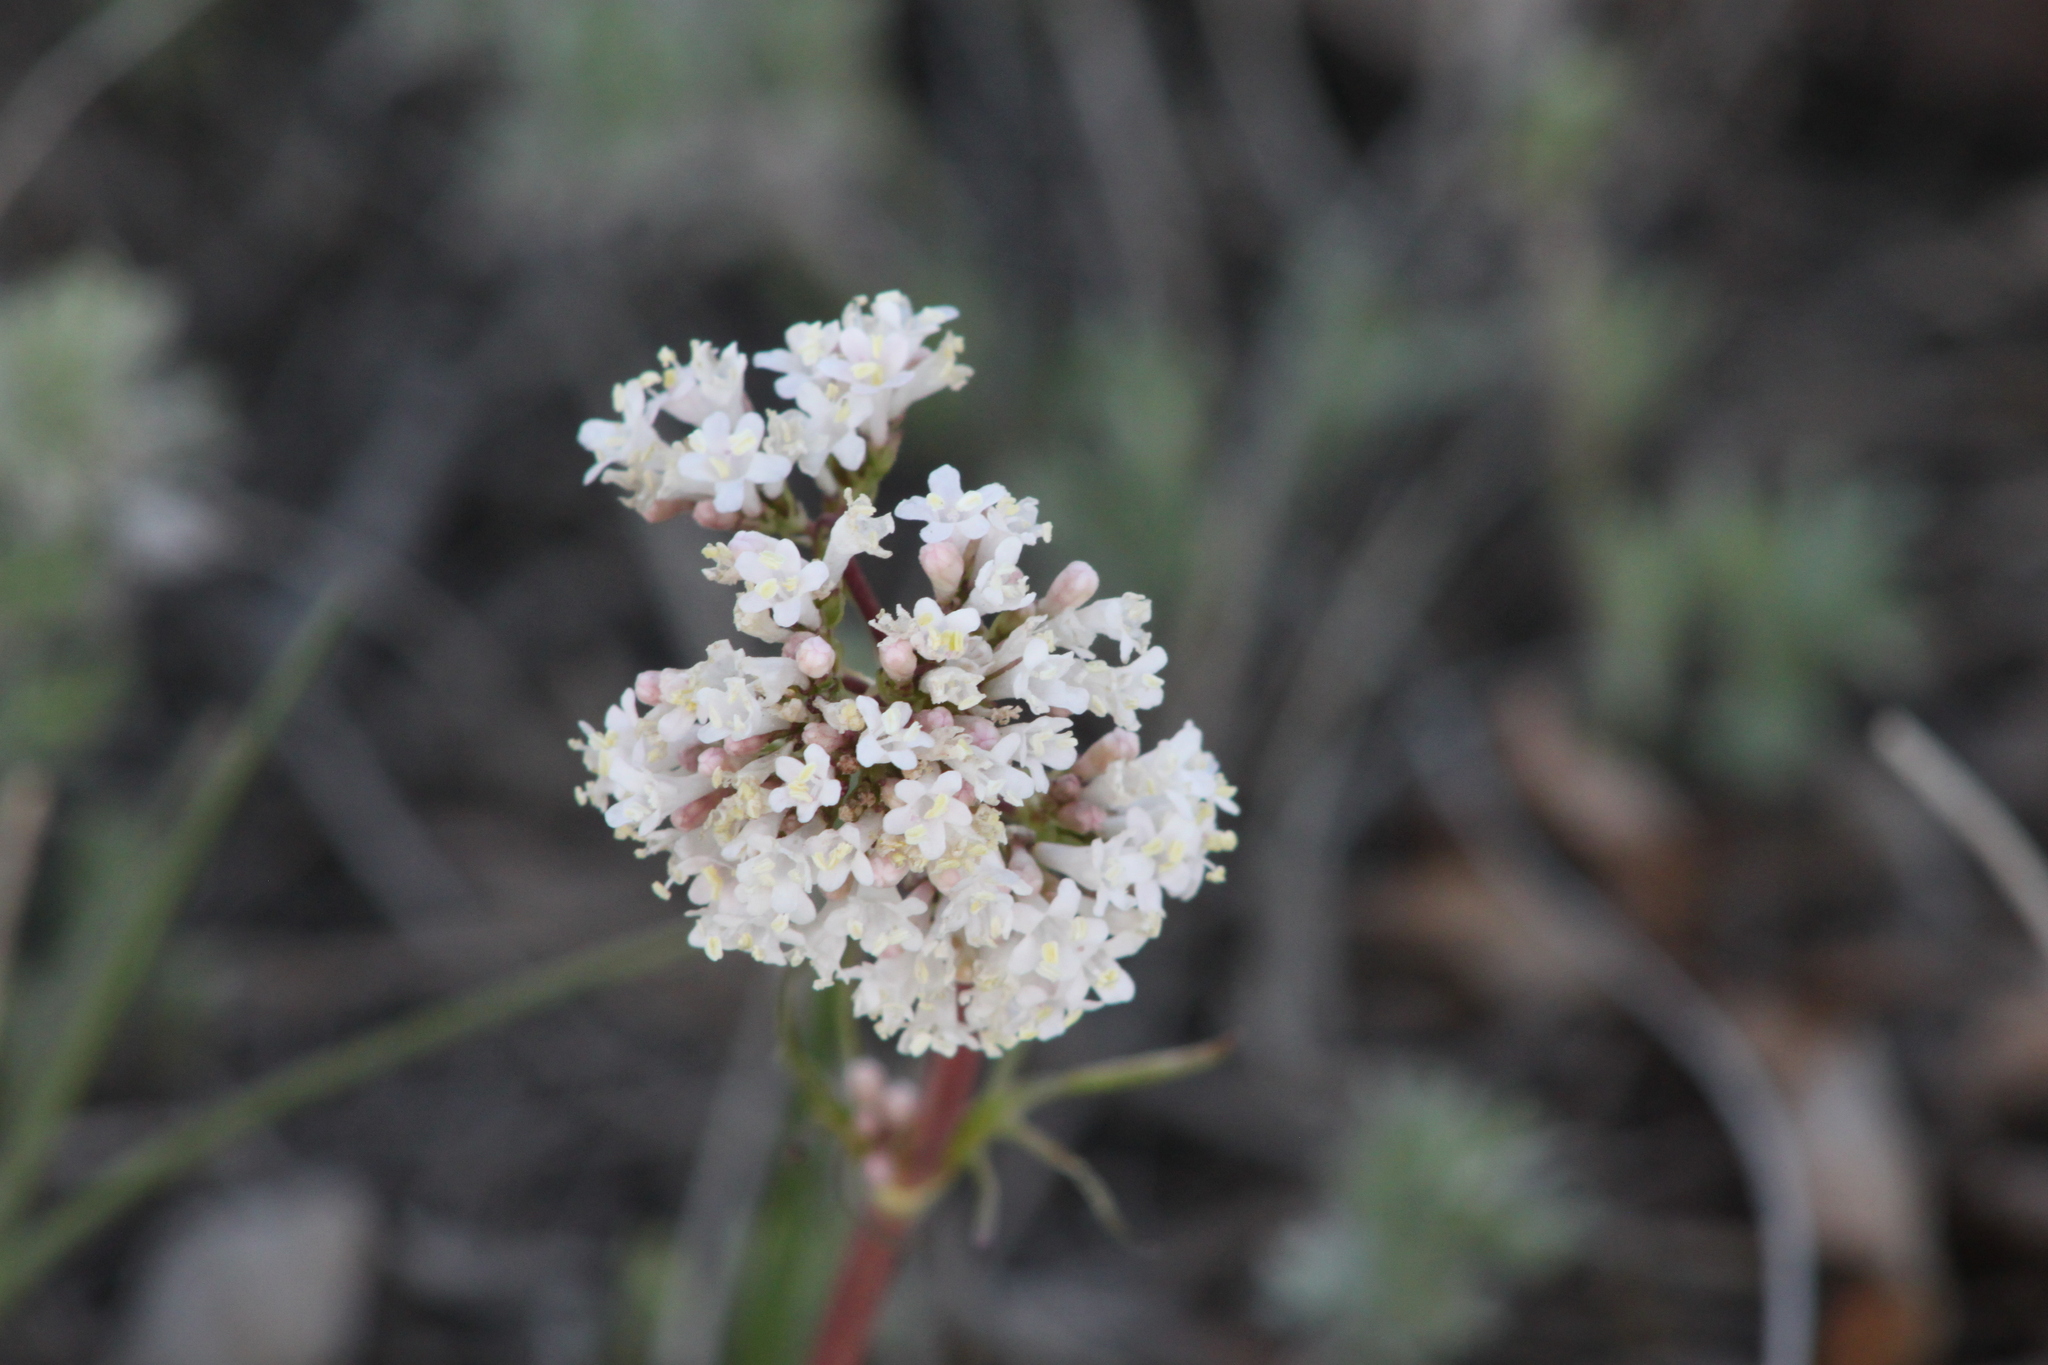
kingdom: Plantae
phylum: Tracheophyta
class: Magnoliopsida
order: Dipsacales
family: Caprifoliaceae
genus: Valeriana
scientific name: Valeriana tuberosa
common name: Tuberous valerian
